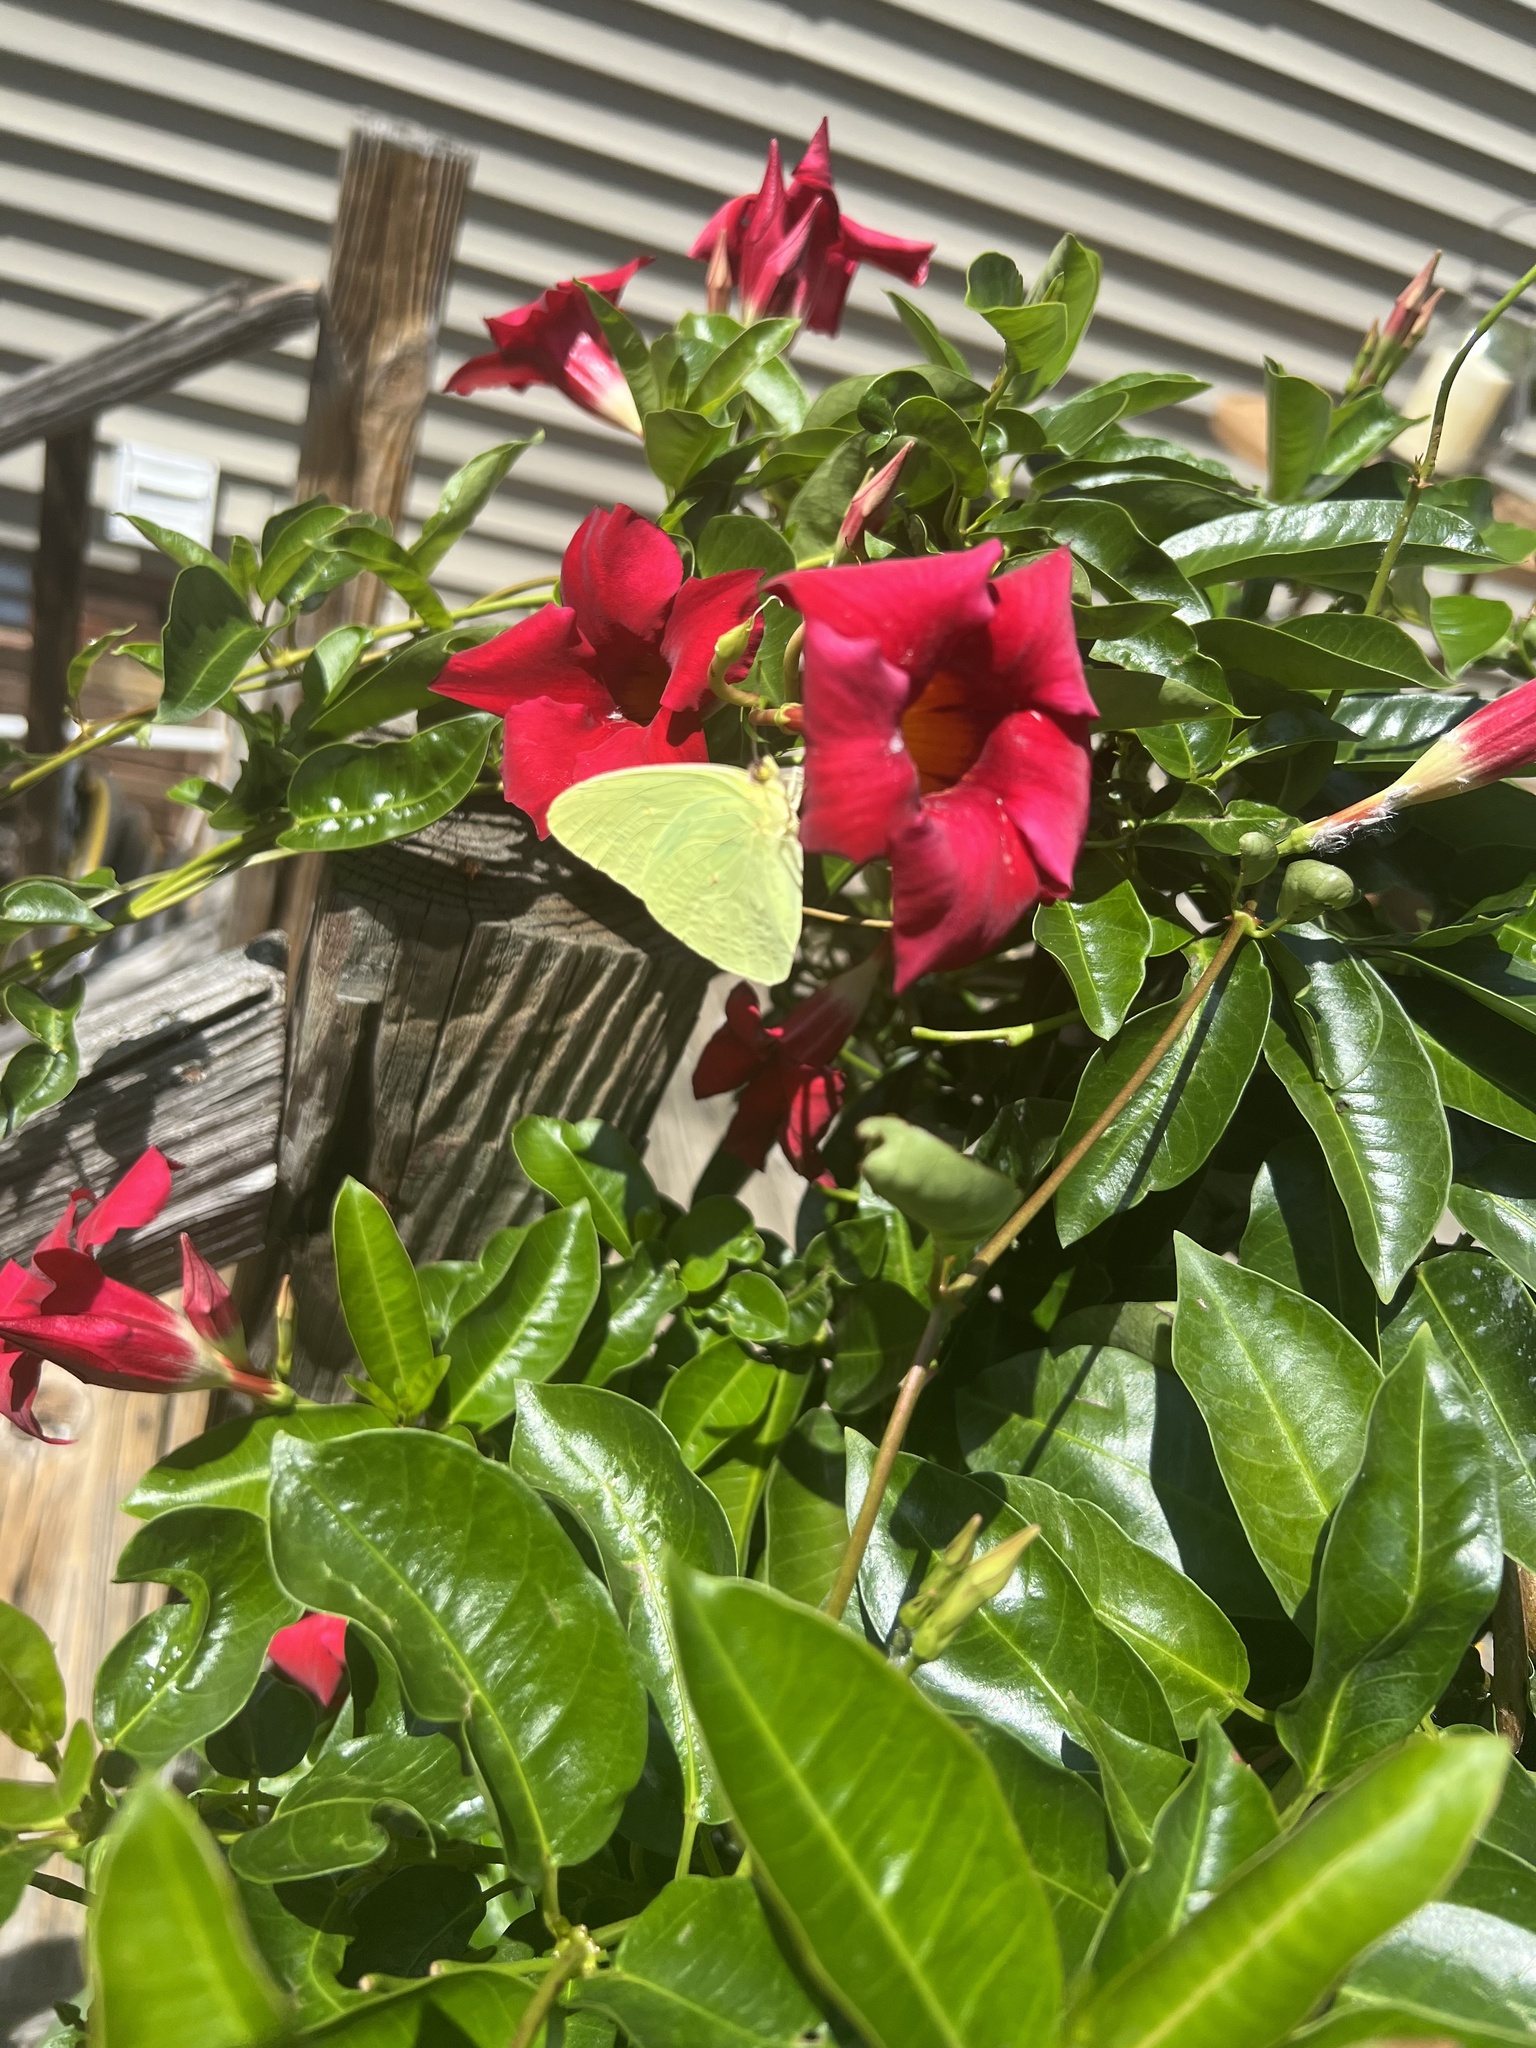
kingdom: Animalia
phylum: Arthropoda
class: Insecta
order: Lepidoptera
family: Pieridae
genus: Phoebis
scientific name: Phoebis sennae
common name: Cloudless sulphur
